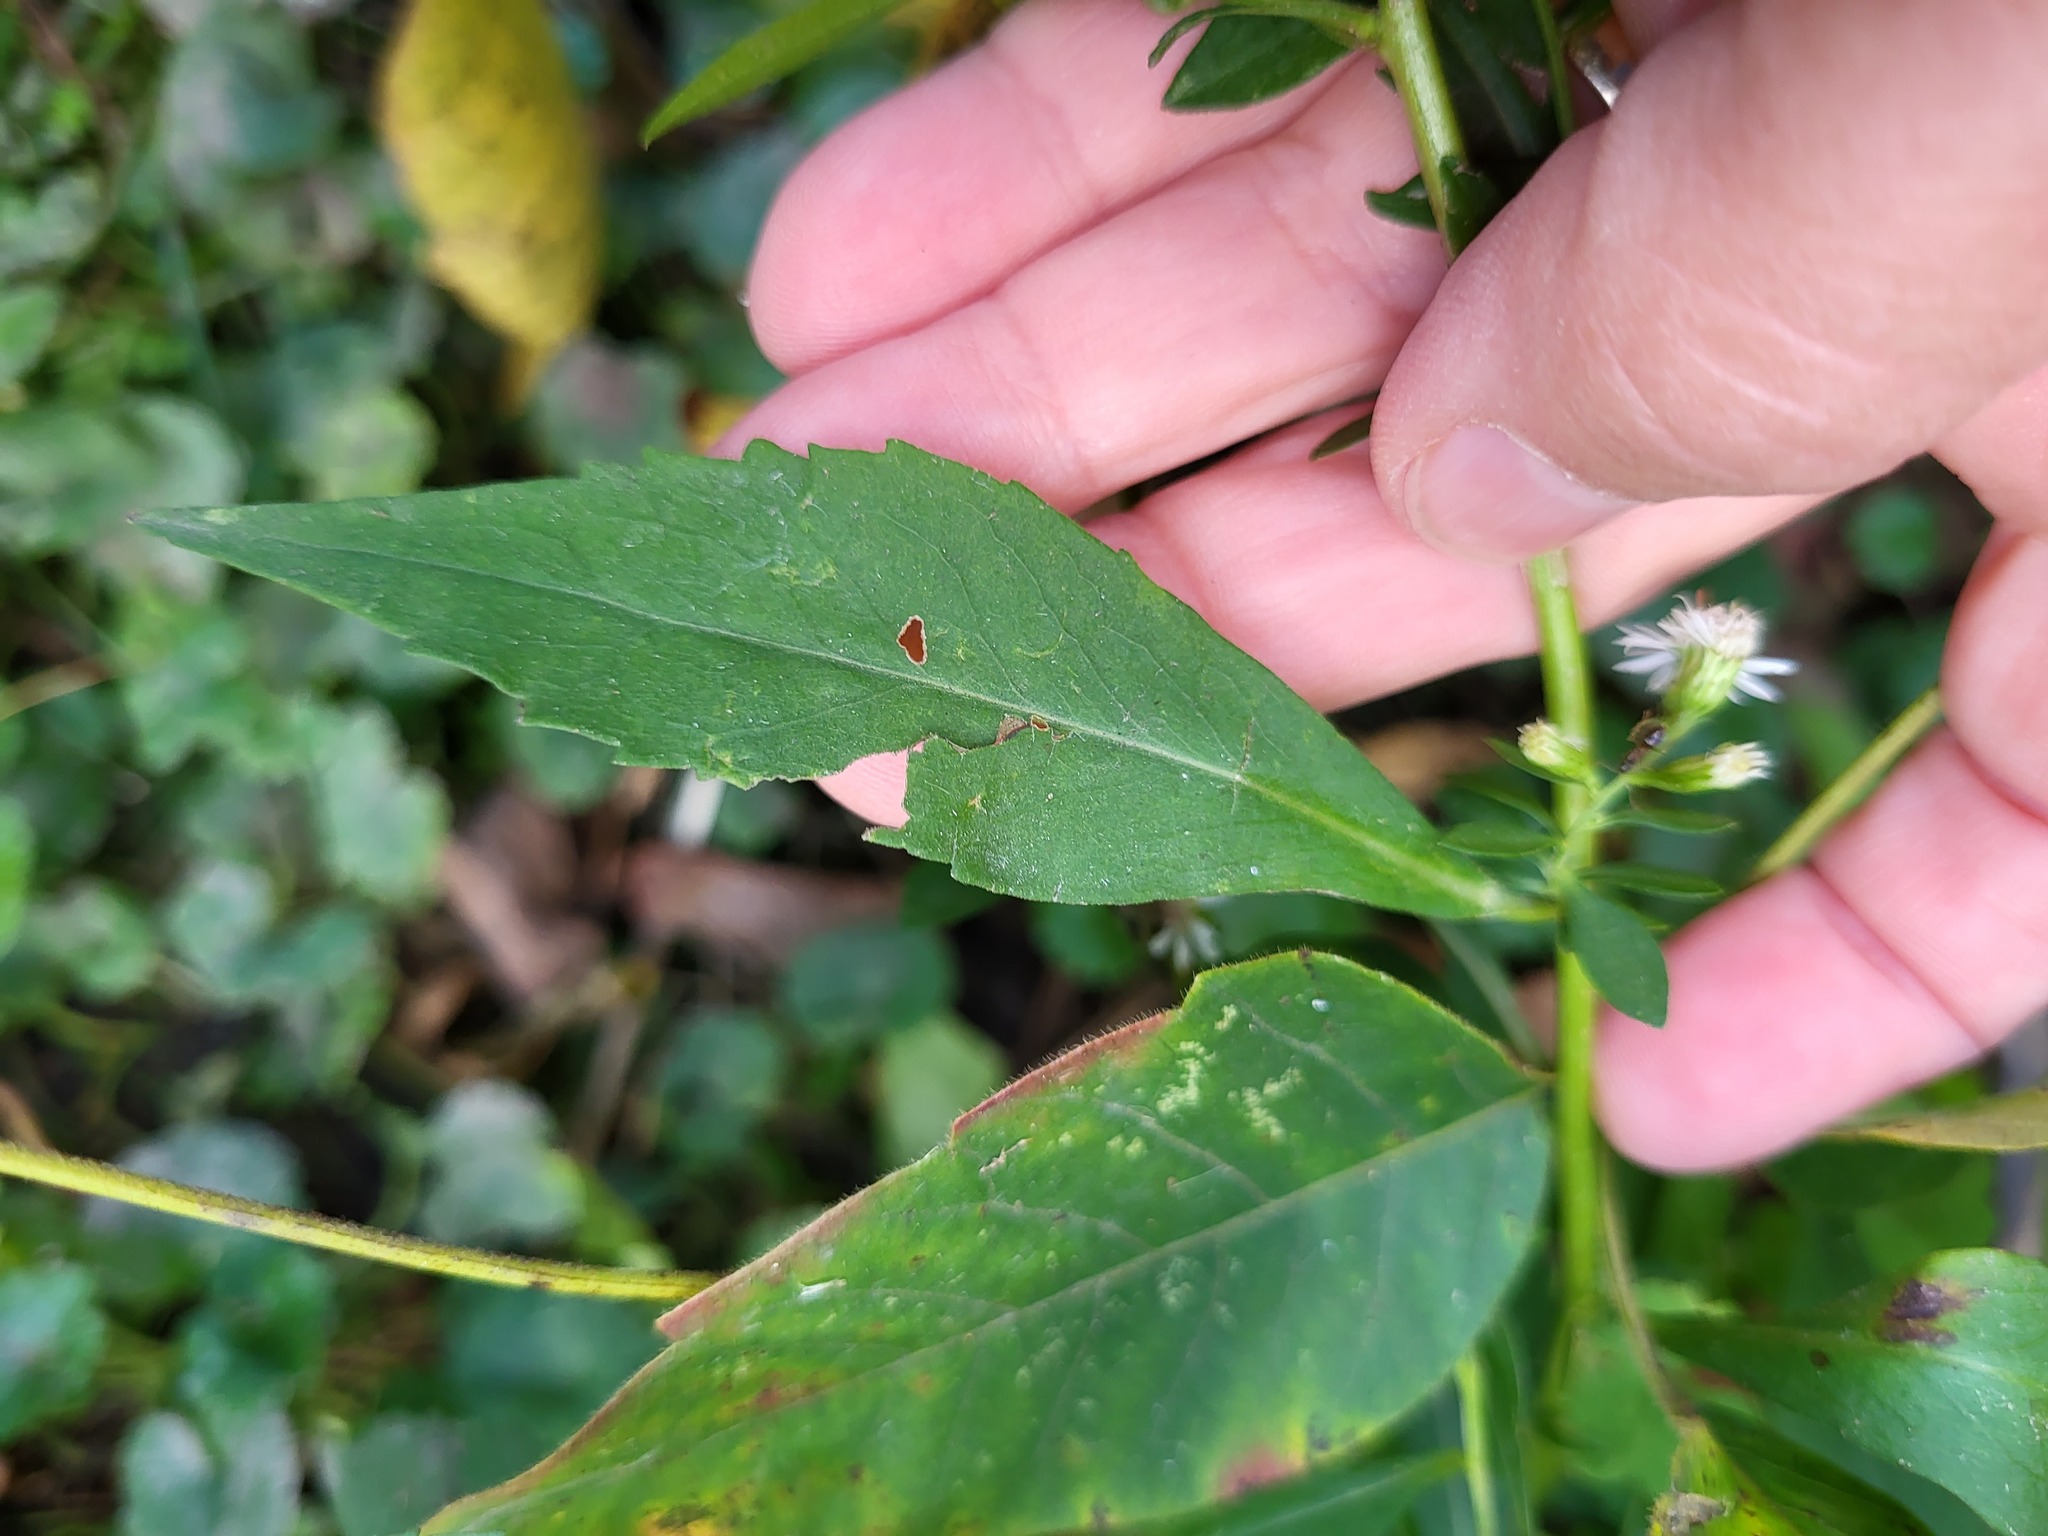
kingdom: Plantae
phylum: Tracheophyta
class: Magnoliopsida
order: Asterales
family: Asteraceae
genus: Symphyotrichum
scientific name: Symphyotrichum lateriflorum
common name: Calico aster
